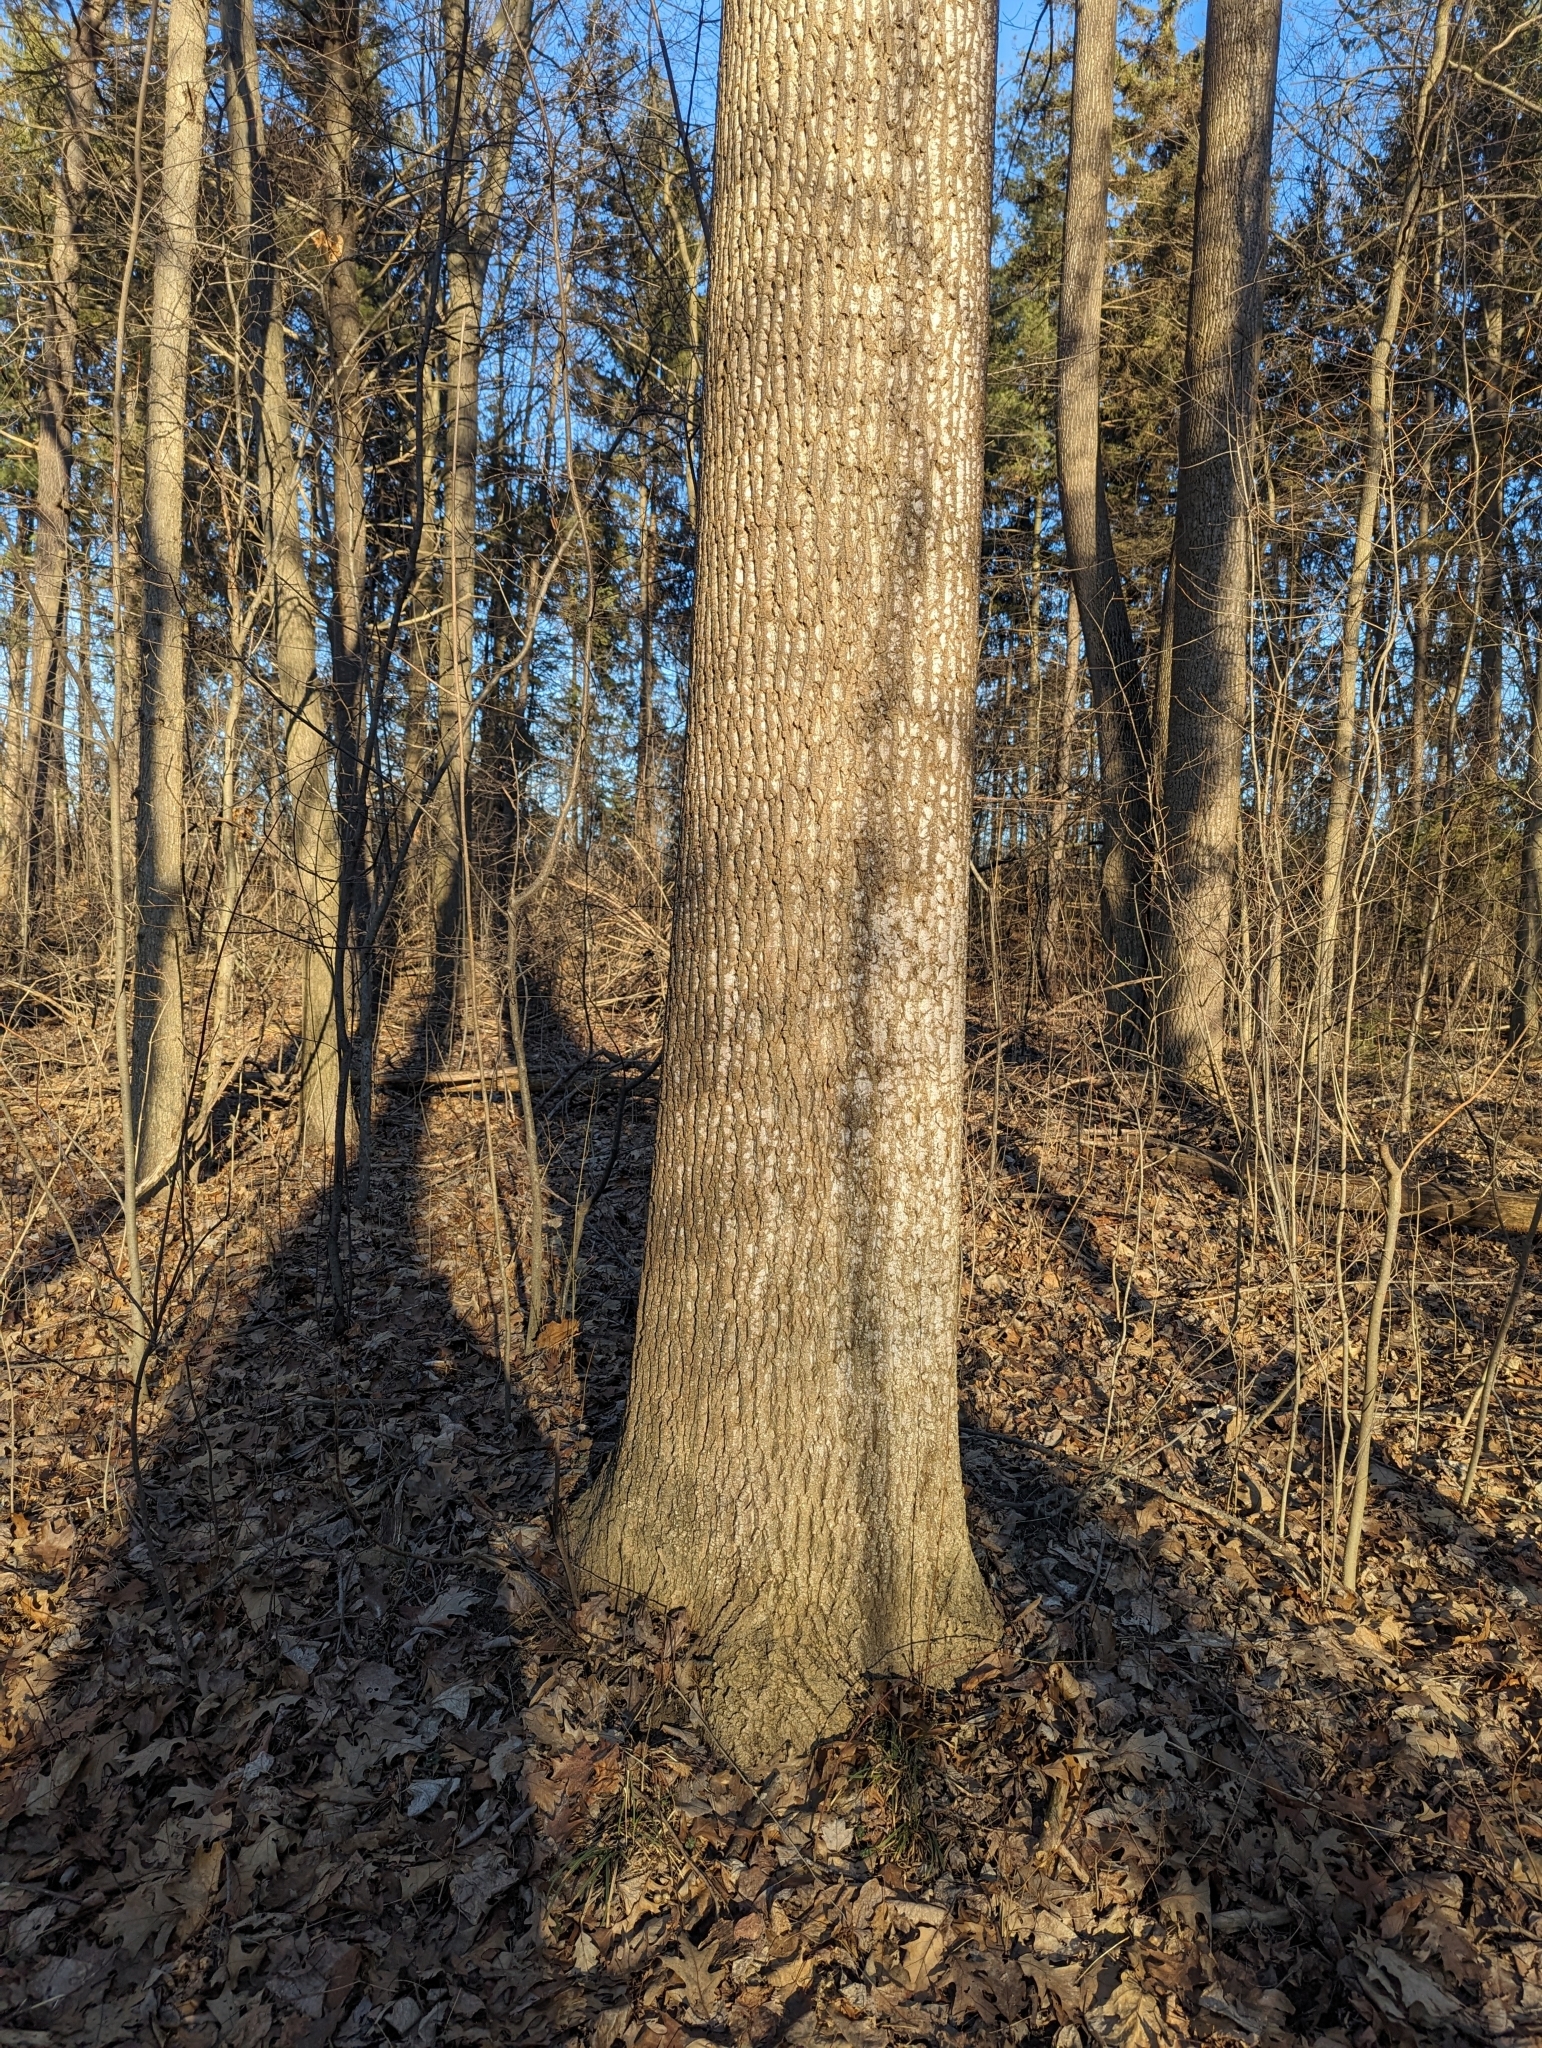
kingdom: Plantae
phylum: Tracheophyta
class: Magnoliopsida
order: Magnoliales
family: Magnoliaceae
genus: Liriodendron
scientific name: Liriodendron tulipifera
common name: Tulip tree
